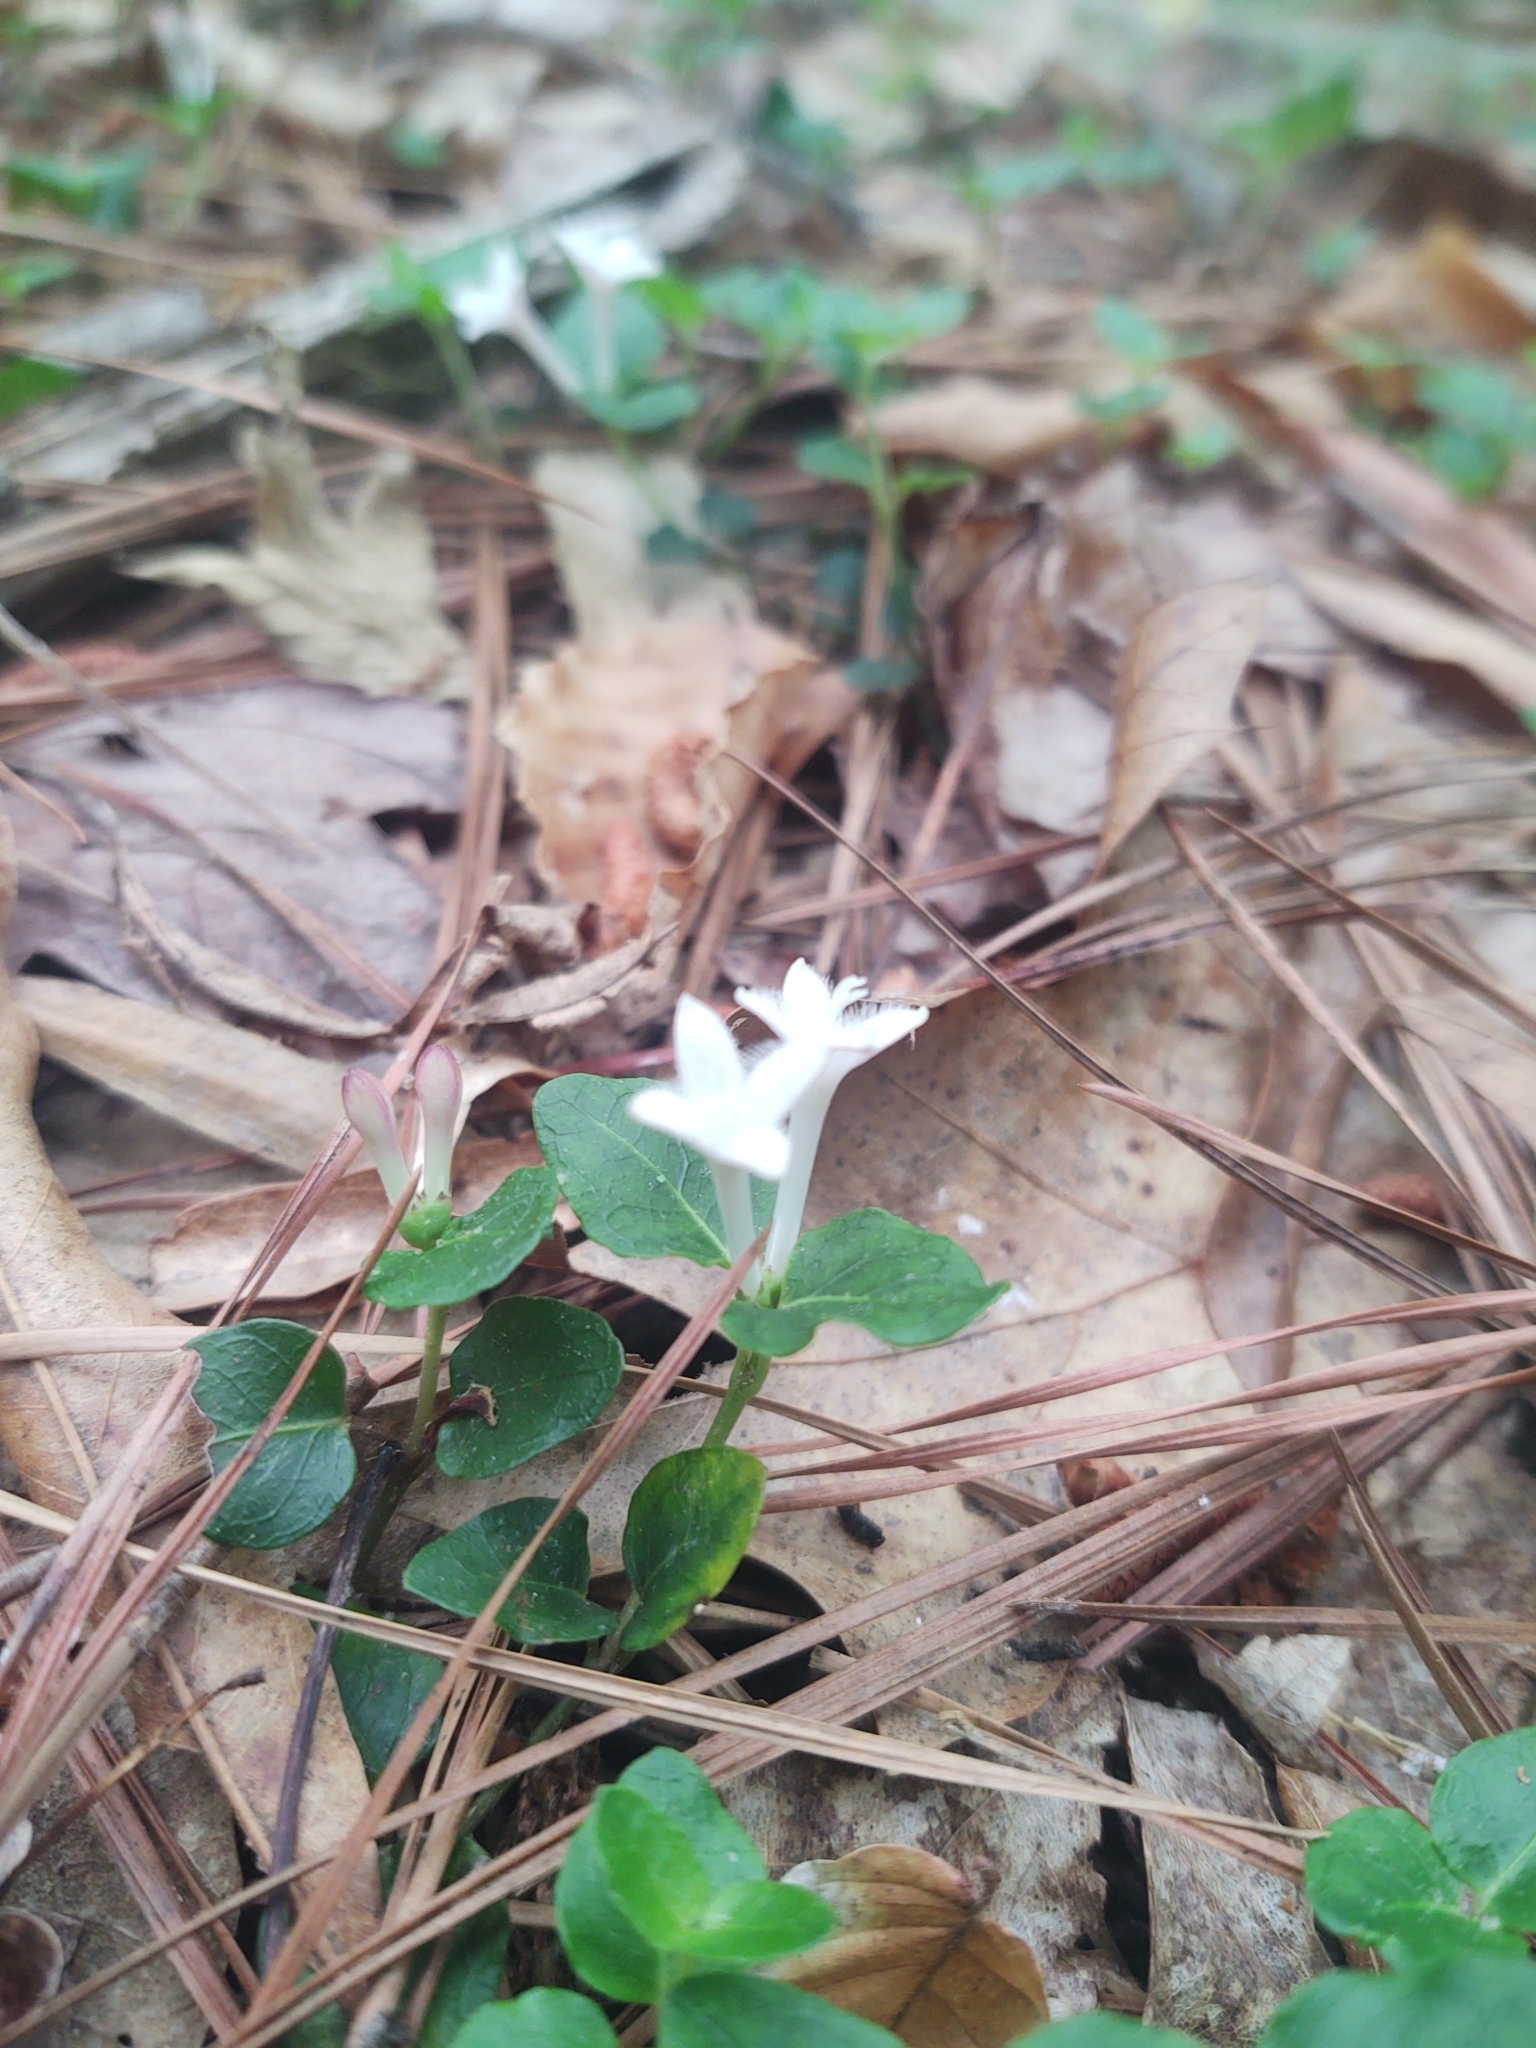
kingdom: Plantae
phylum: Tracheophyta
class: Magnoliopsida
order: Gentianales
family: Rubiaceae
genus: Mitchella
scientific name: Mitchella repens
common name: Partridge-berry
